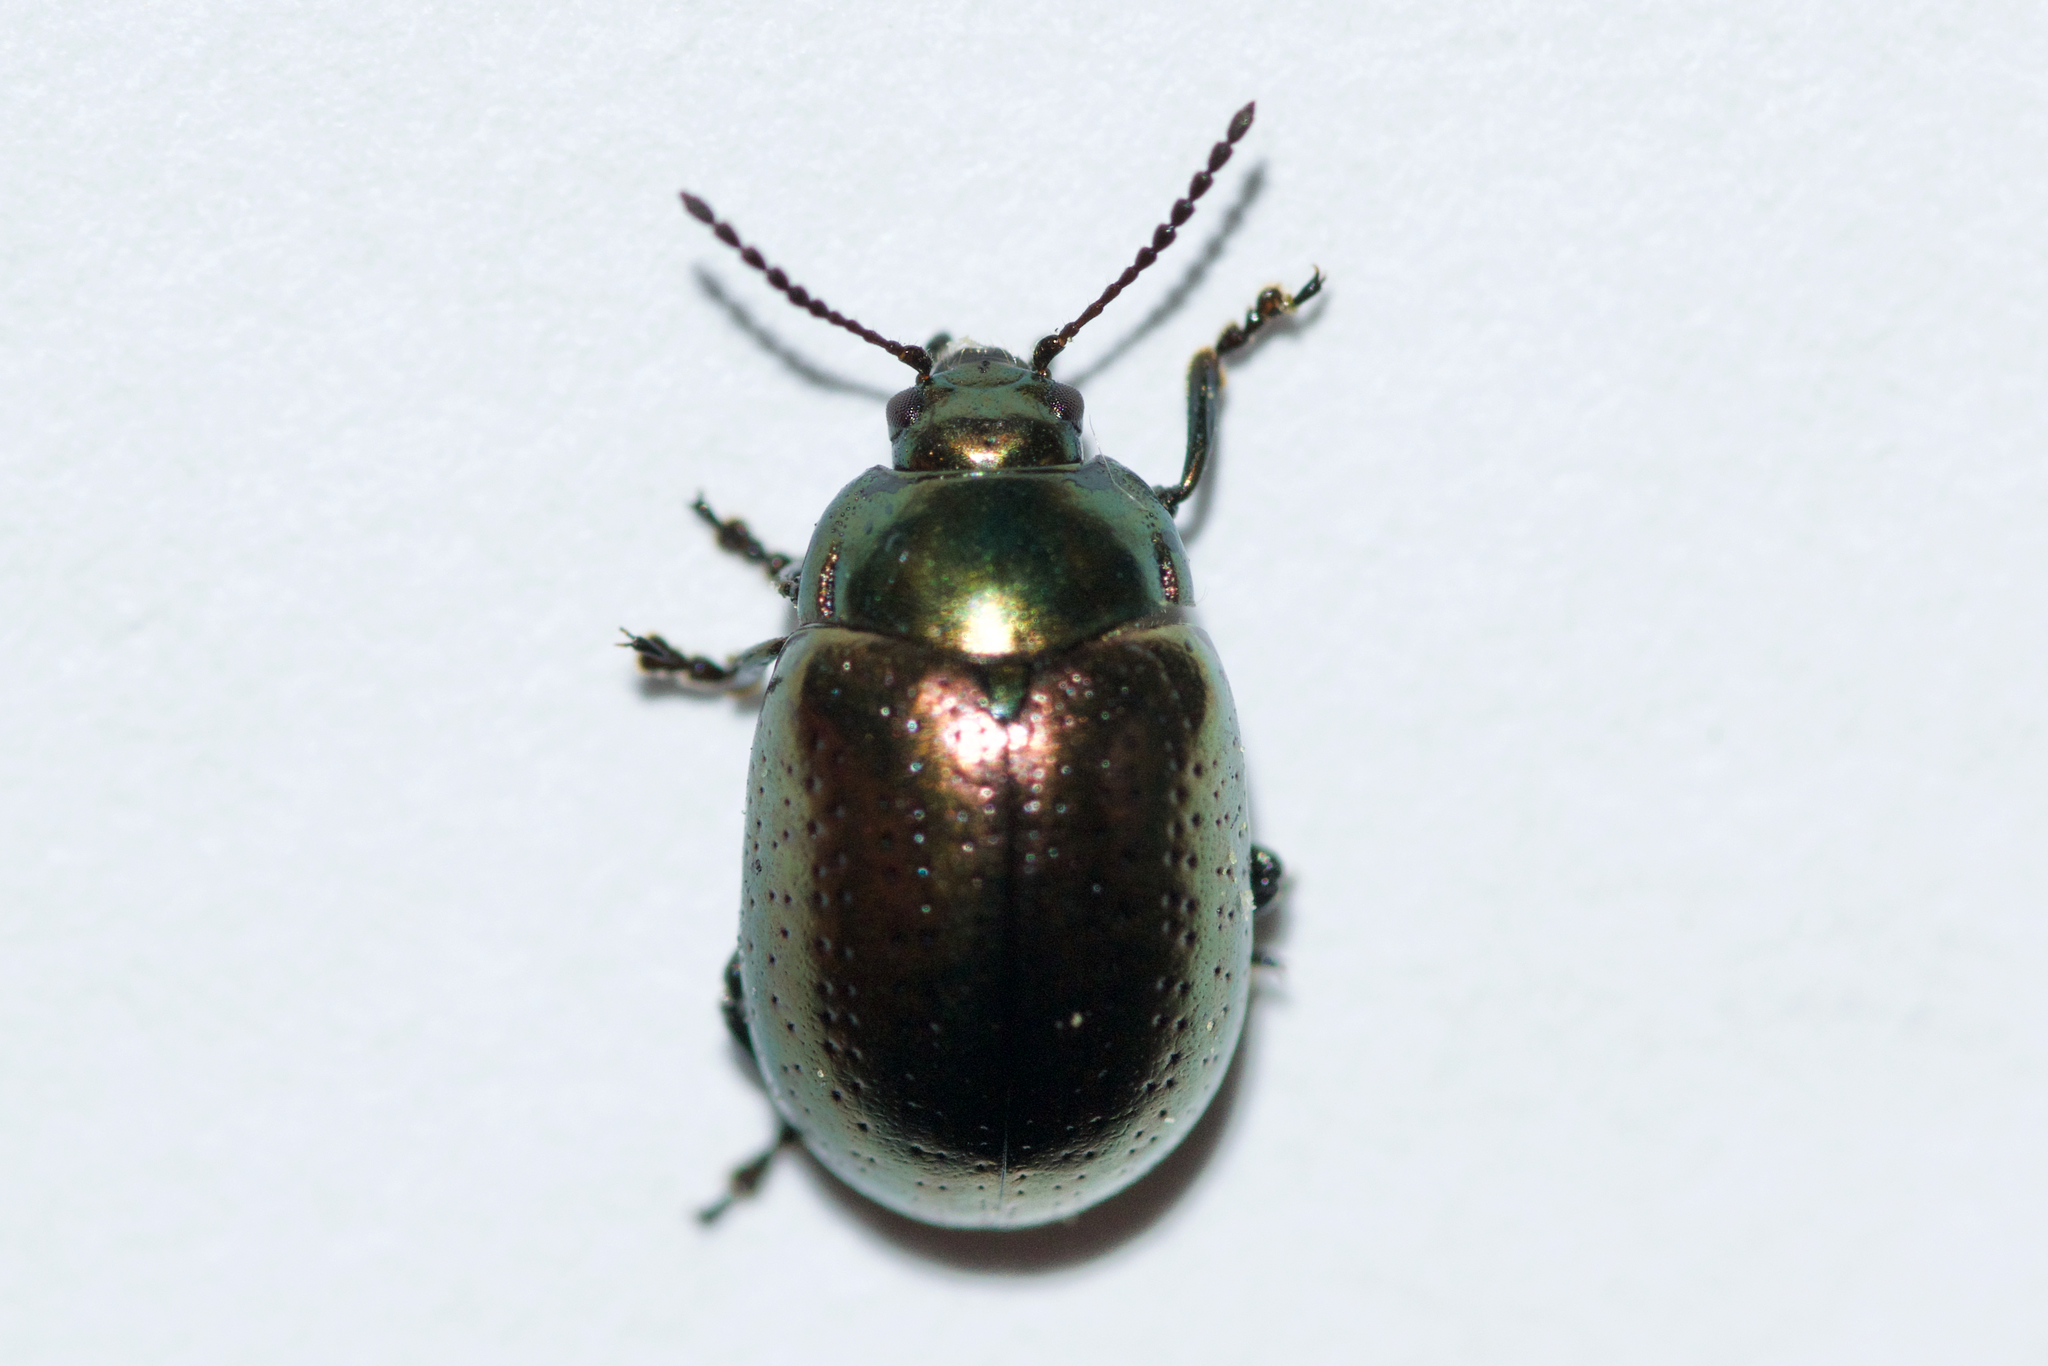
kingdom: Animalia
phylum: Arthropoda
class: Insecta
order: Coleoptera
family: Chrysomelidae
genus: Chrysolina
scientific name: Chrysolina hyperici
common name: St. johnswort beetle
